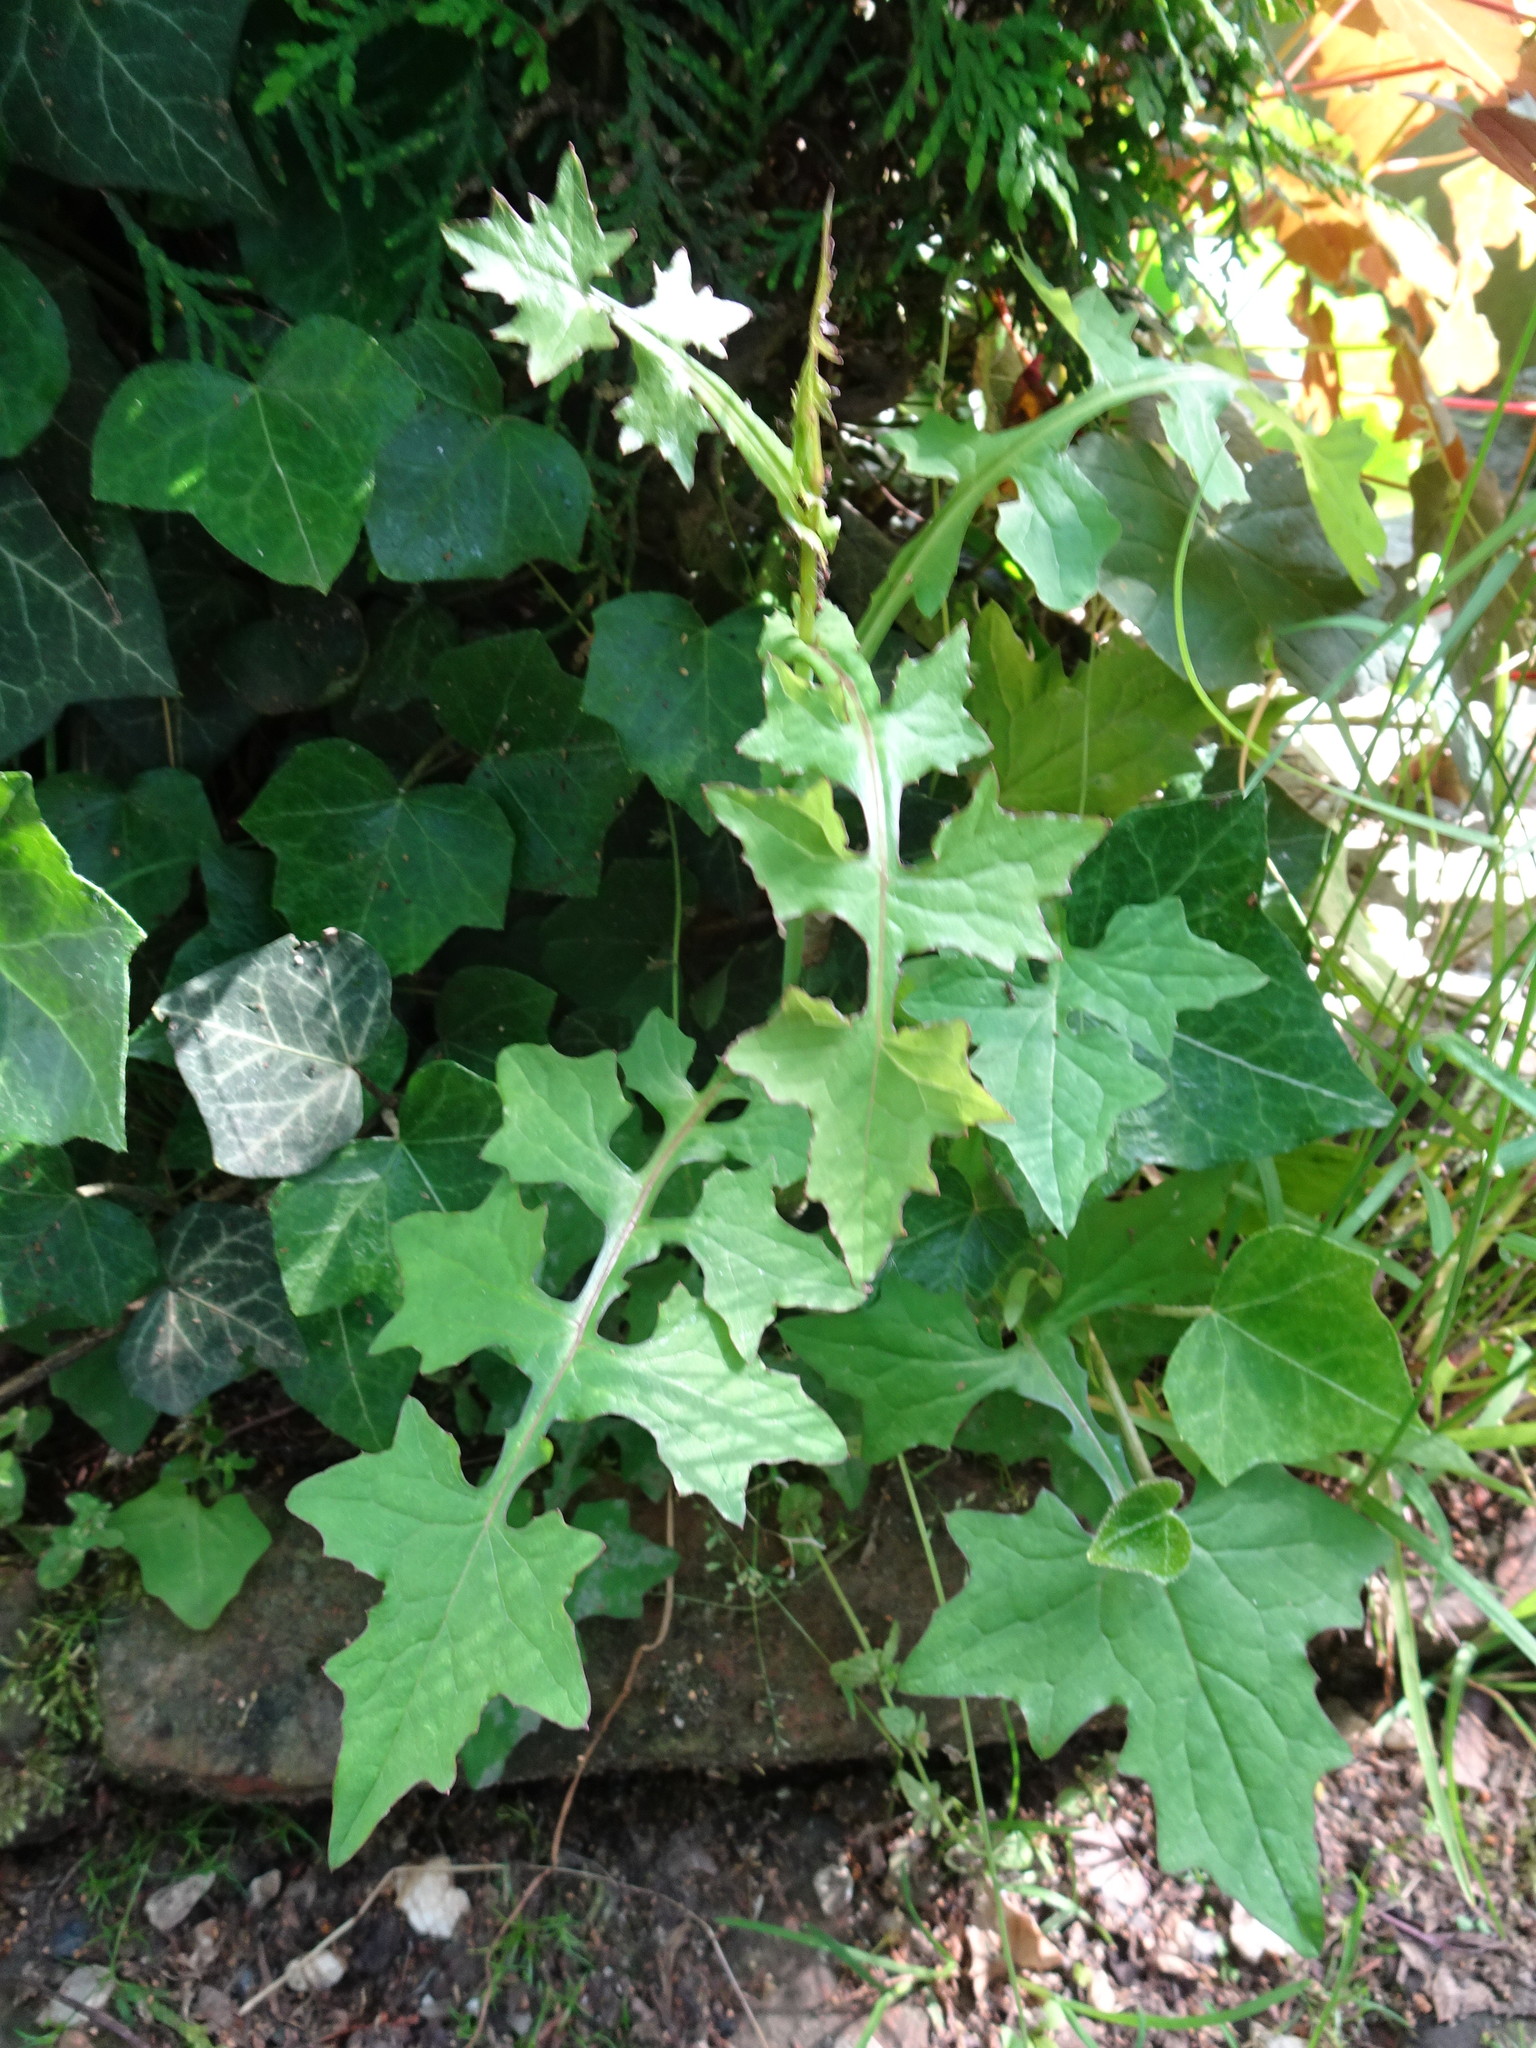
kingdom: Plantae
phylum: Tracheophyta
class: Magnoliopsida
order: Asterales
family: Asteraceae
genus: Mycelis
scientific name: Mycelis muralis
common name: Wall lettuce
